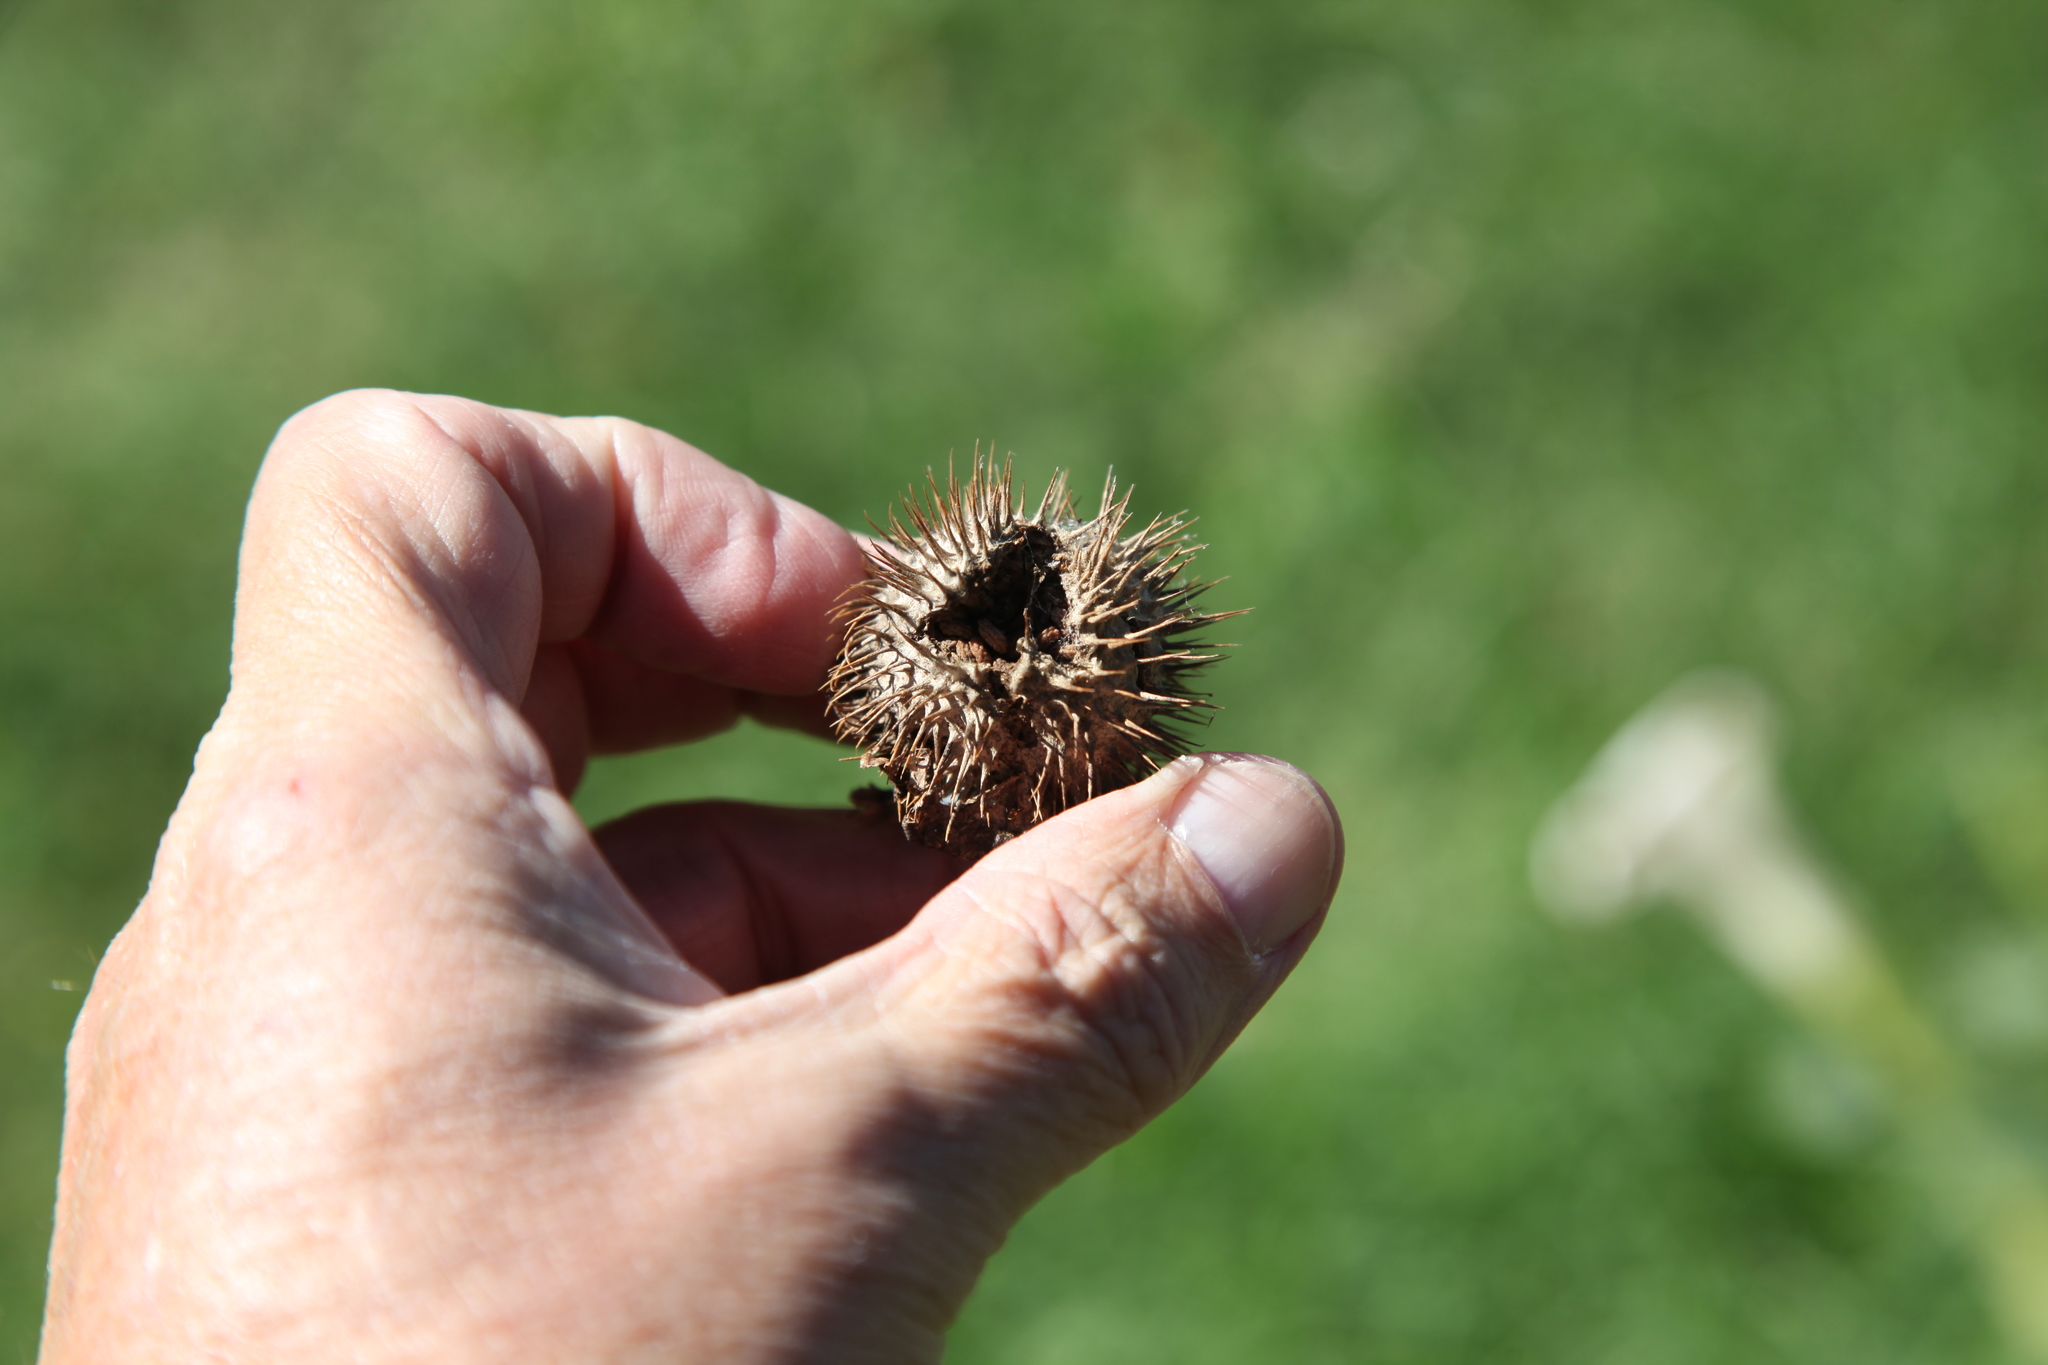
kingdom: Plantae
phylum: Tracheophyta
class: Magnoliopsida
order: Solanales
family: Solanaceae
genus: Datura
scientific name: Datura innoxia
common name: Downy thorn-apple
